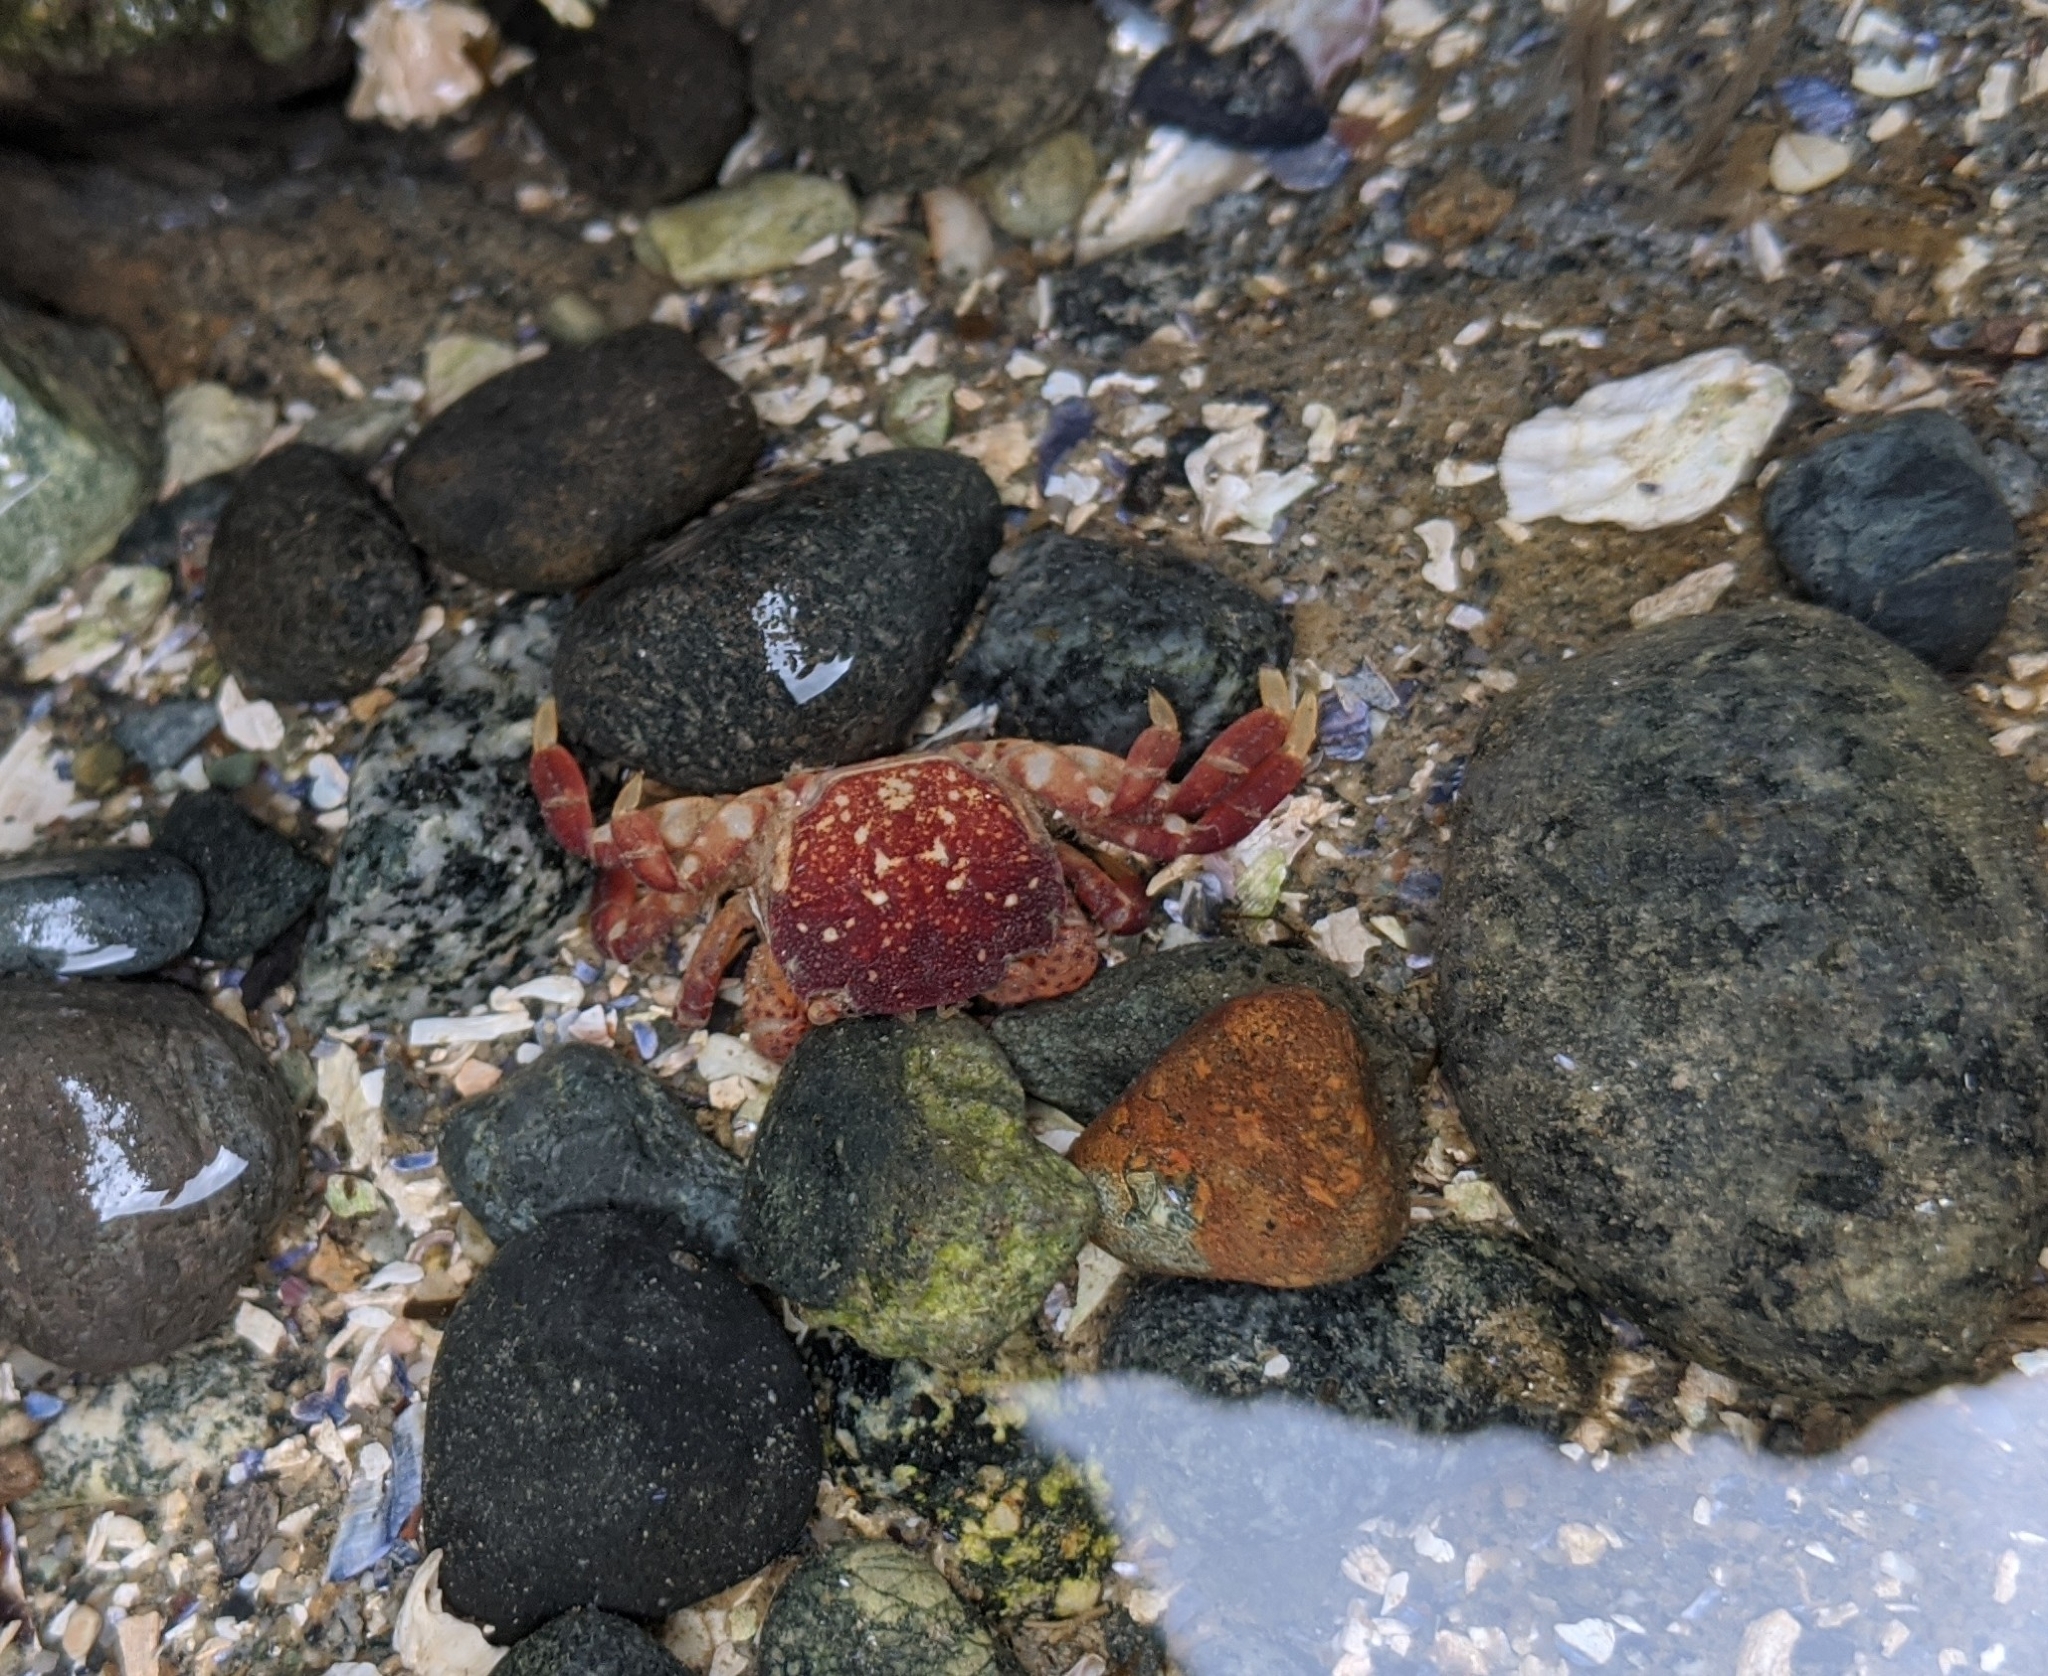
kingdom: Animalia
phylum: Arthropoda
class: Malacostraca
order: Decapoda
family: Varunidae
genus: Hemigrapsus
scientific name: Hemigrapsus nudus
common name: Purple shore crab
